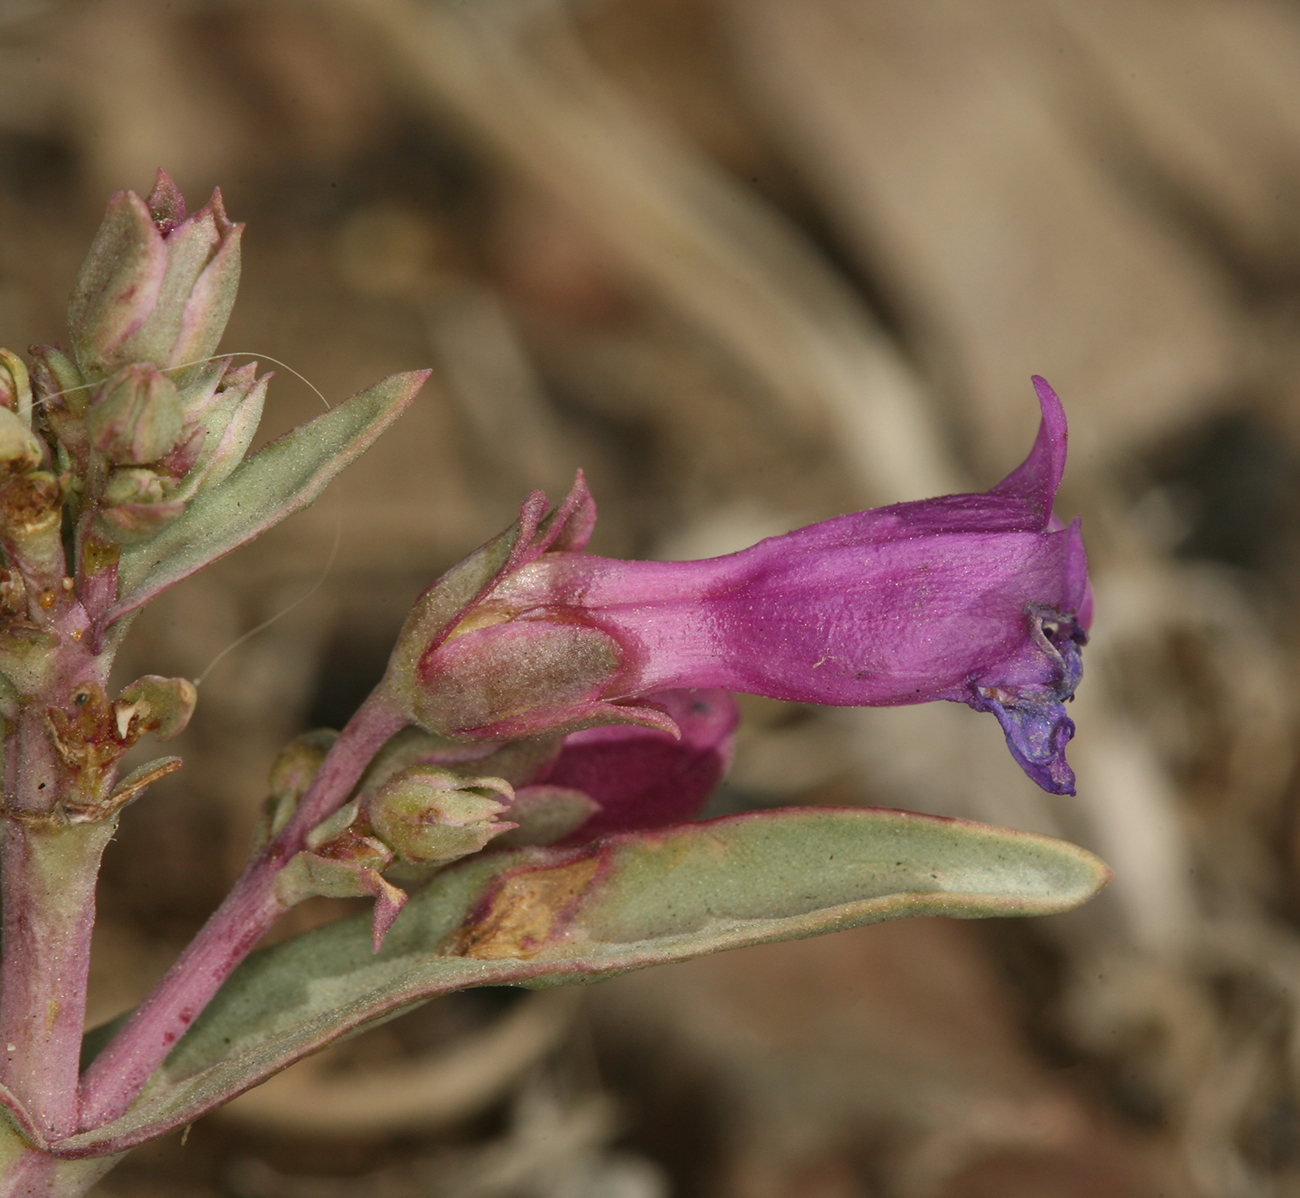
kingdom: Plantae
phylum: Tracheophyta
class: Magnoliopsida
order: Lamiales
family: Plantaginaceae
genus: Penstemon
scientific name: Penstemon patens
